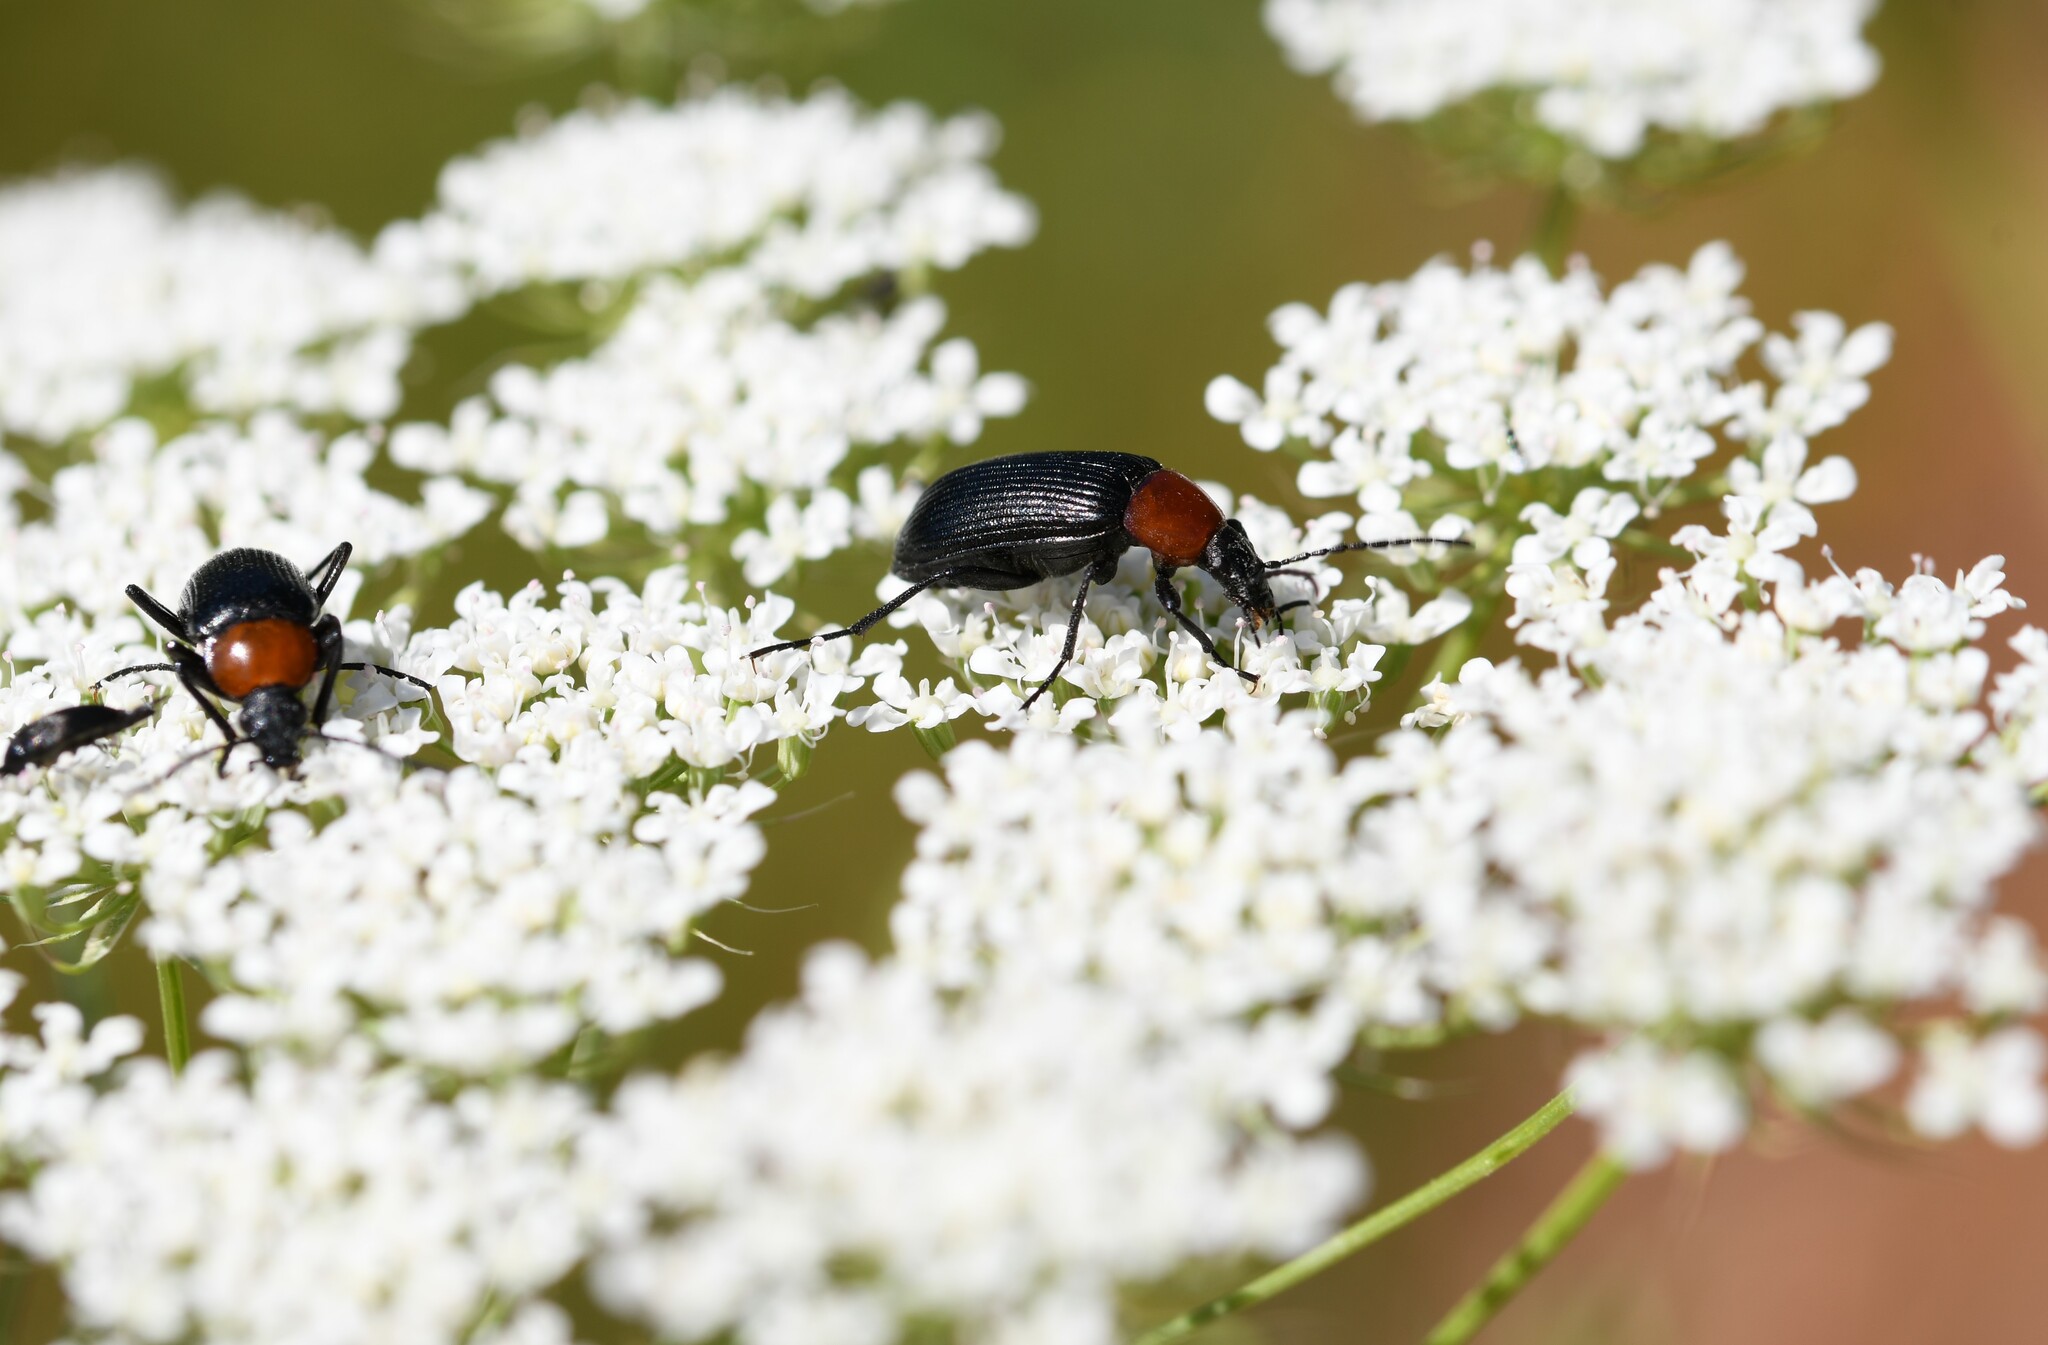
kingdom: Animalia
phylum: Arthropoda
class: Insecta
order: Coleoptera
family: Tenebrionidae
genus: Heliotaurus
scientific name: Heliotaurus ruficollis
